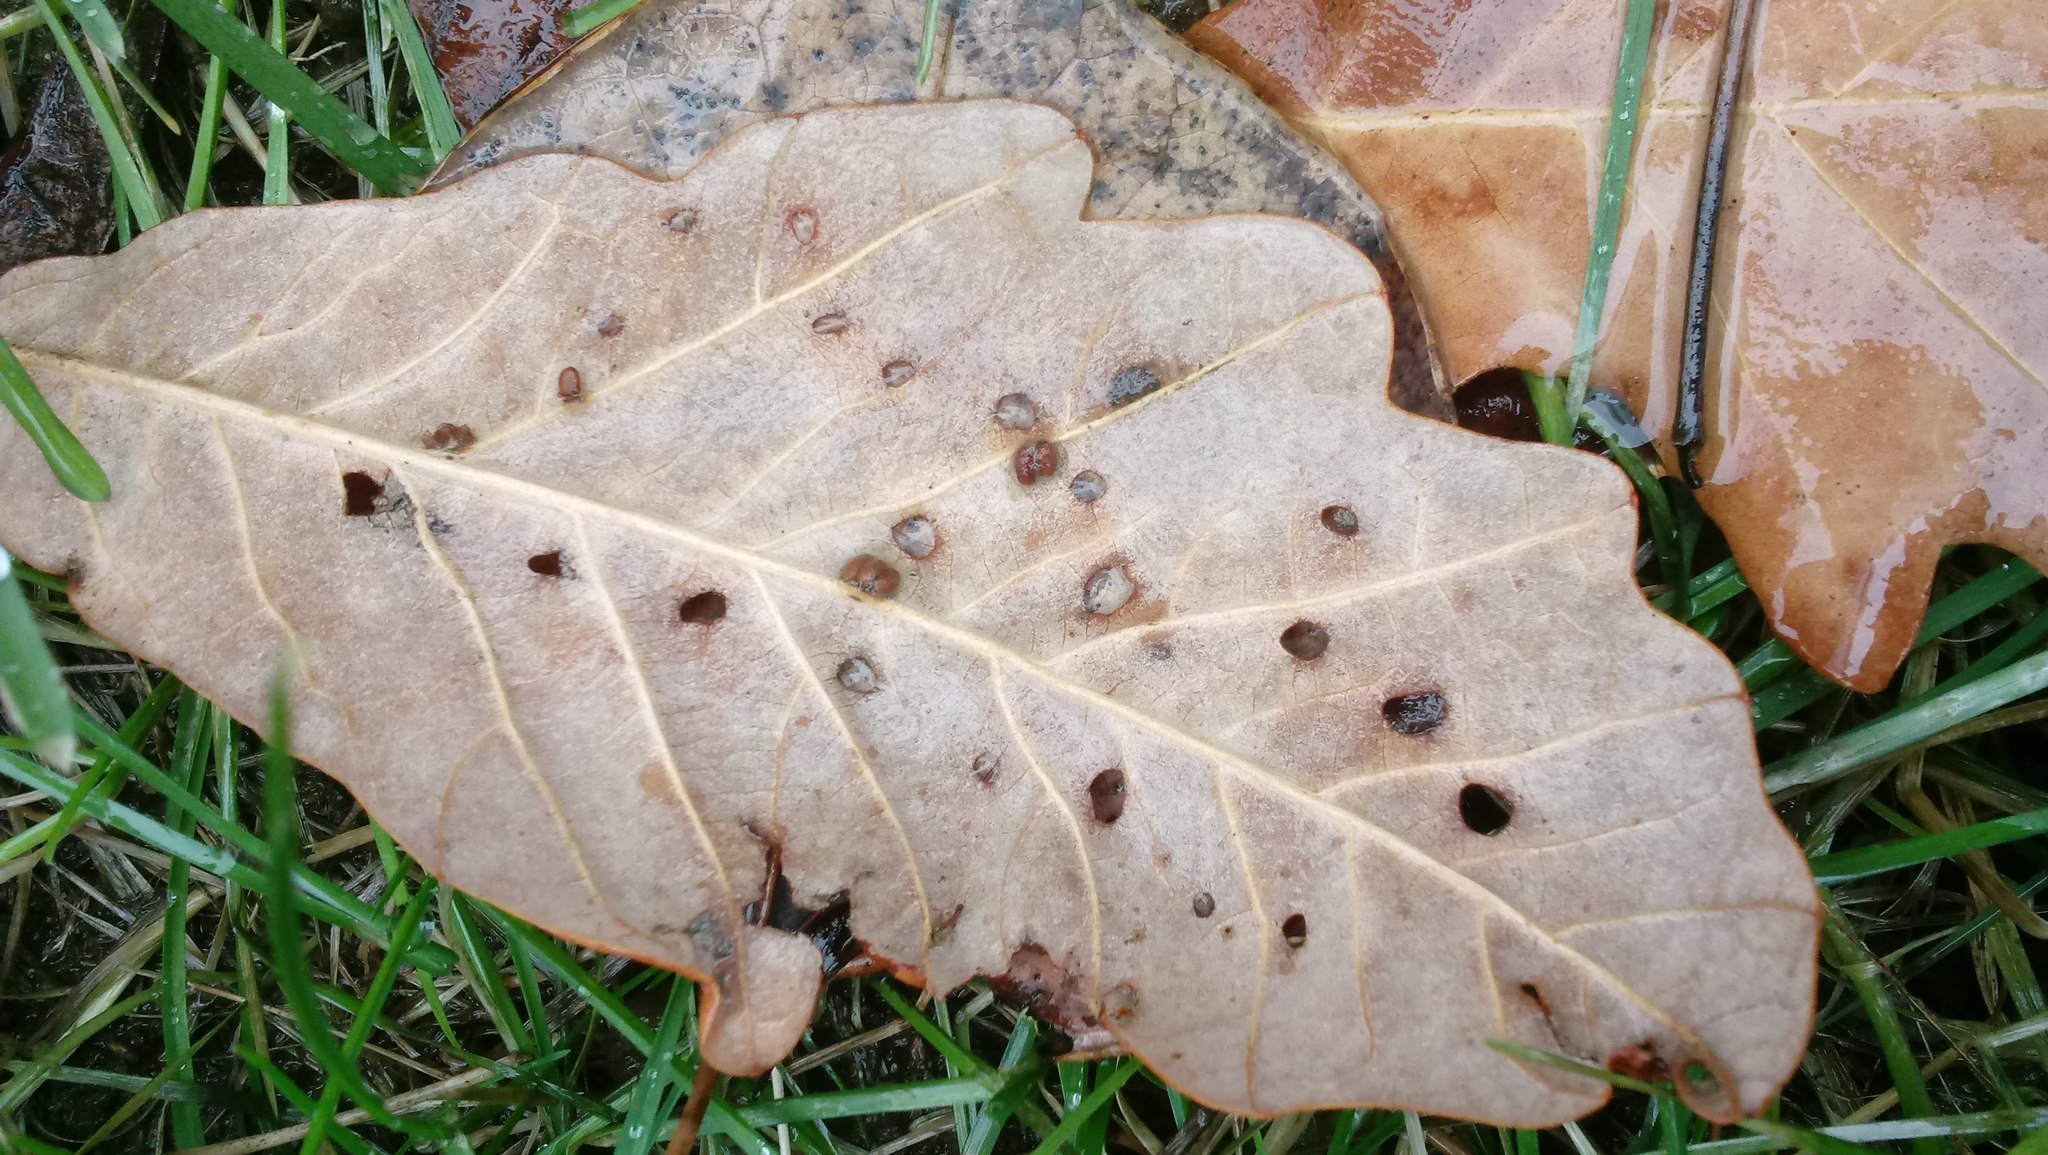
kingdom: Animalia
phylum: Arthropoda
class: Insecta
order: Hymenoptera
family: Cynipidae
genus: Andricus
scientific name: Andricus Druon ignotum
